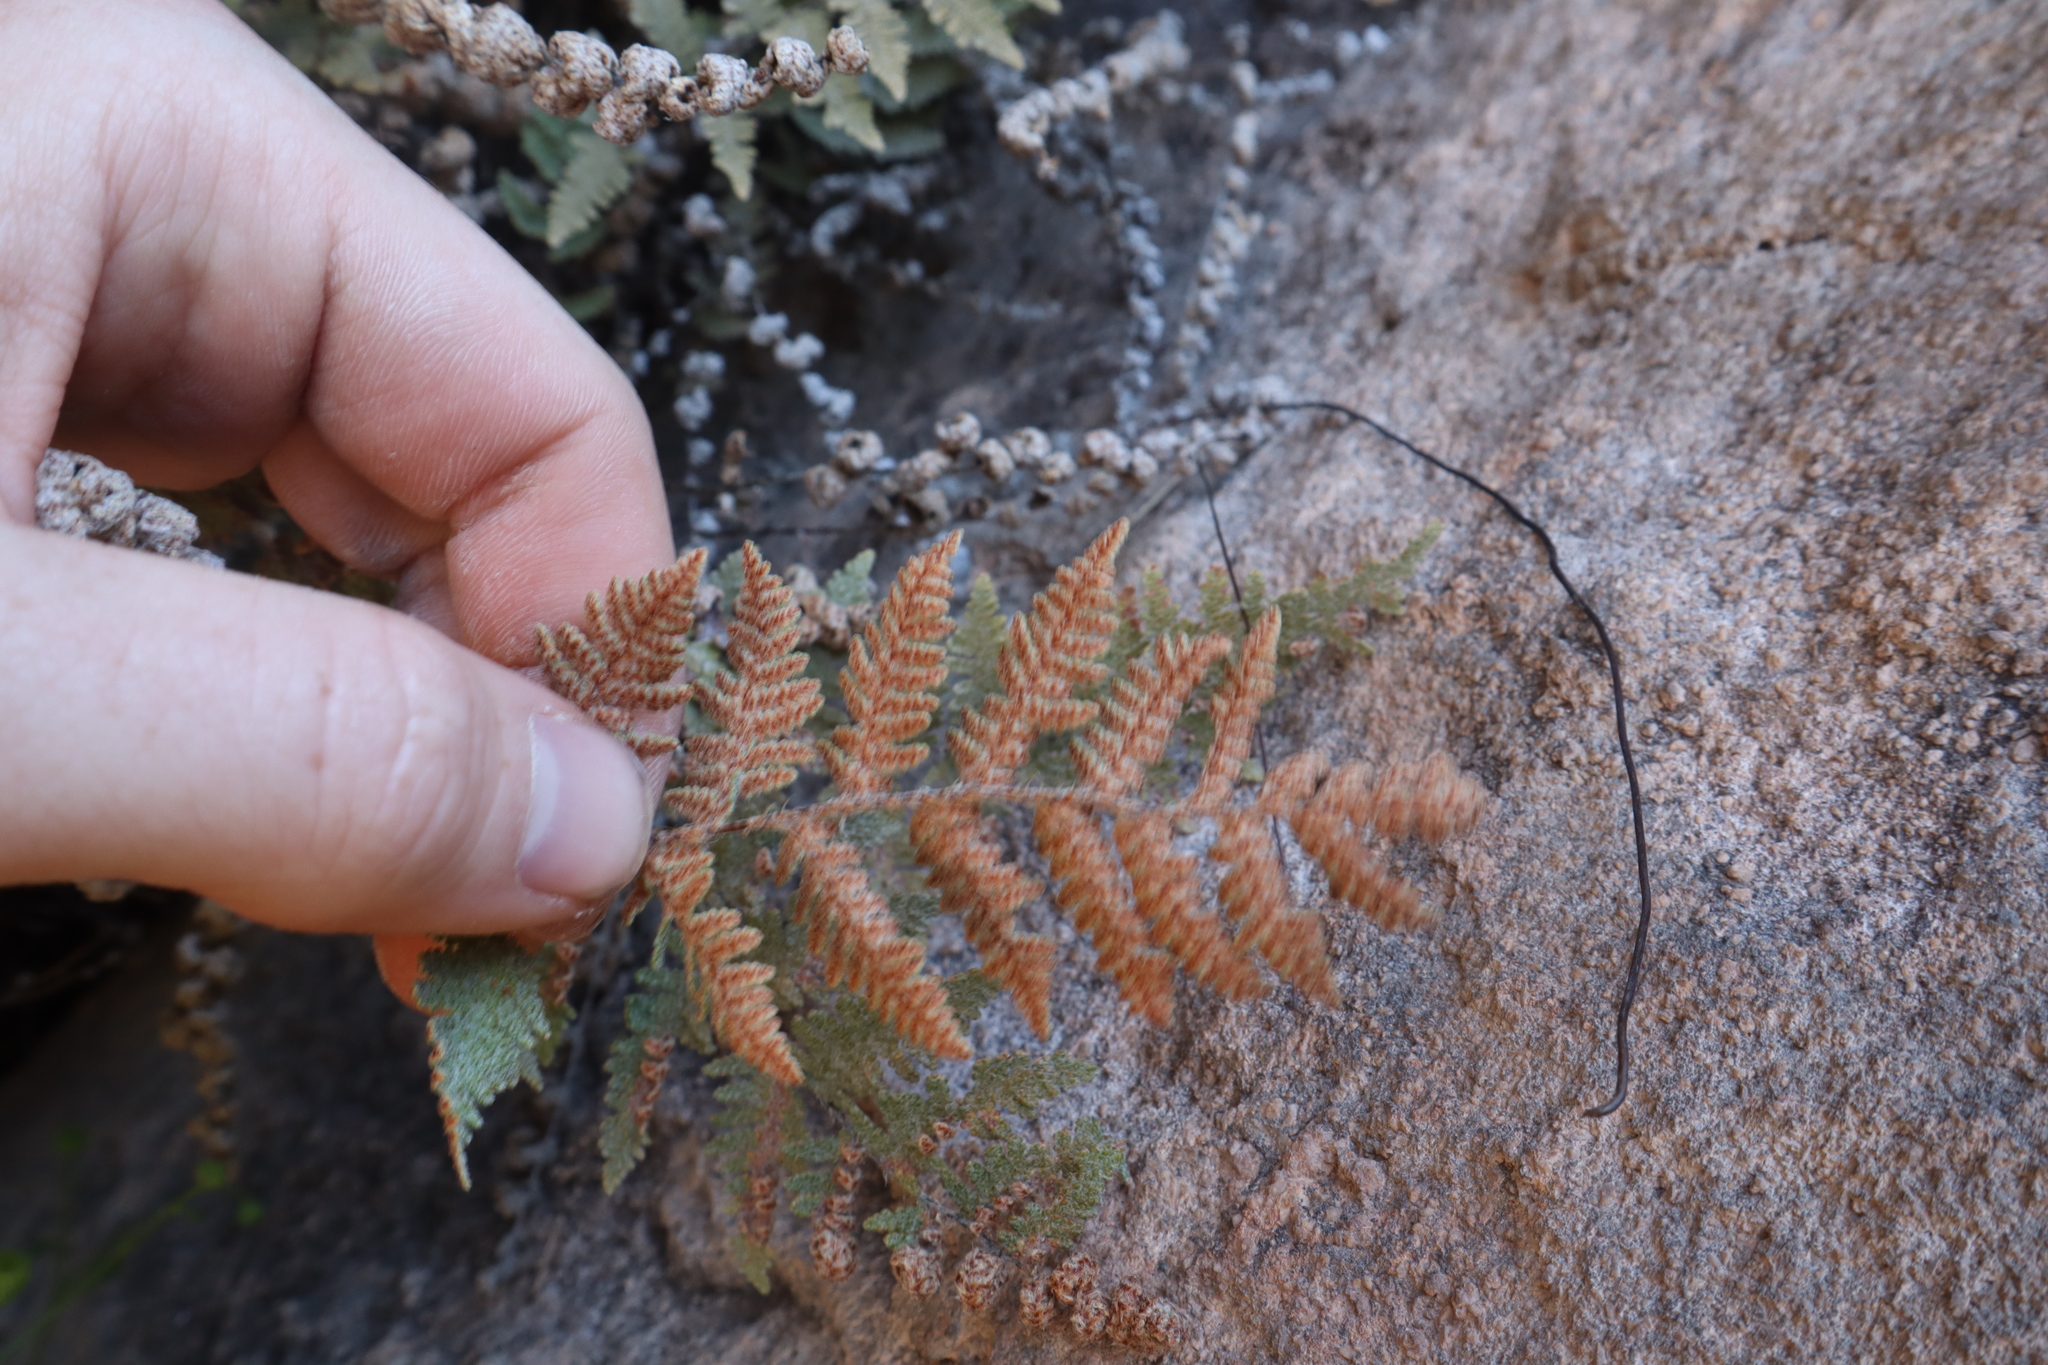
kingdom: Plantae
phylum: Tracheophyta
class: Polypodiopsida
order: Polypodiales
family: Pteridaceae
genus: Myriopteris
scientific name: Myriopteris lindheimeri
